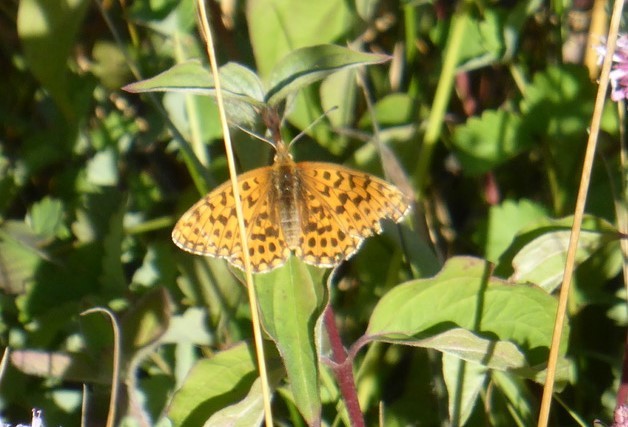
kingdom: Animalia
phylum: Arthropoda
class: Insecta
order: Lepidoptera
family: Nymphalidae
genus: Boloria
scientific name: Boloria dia
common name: Weaver's fritillary
